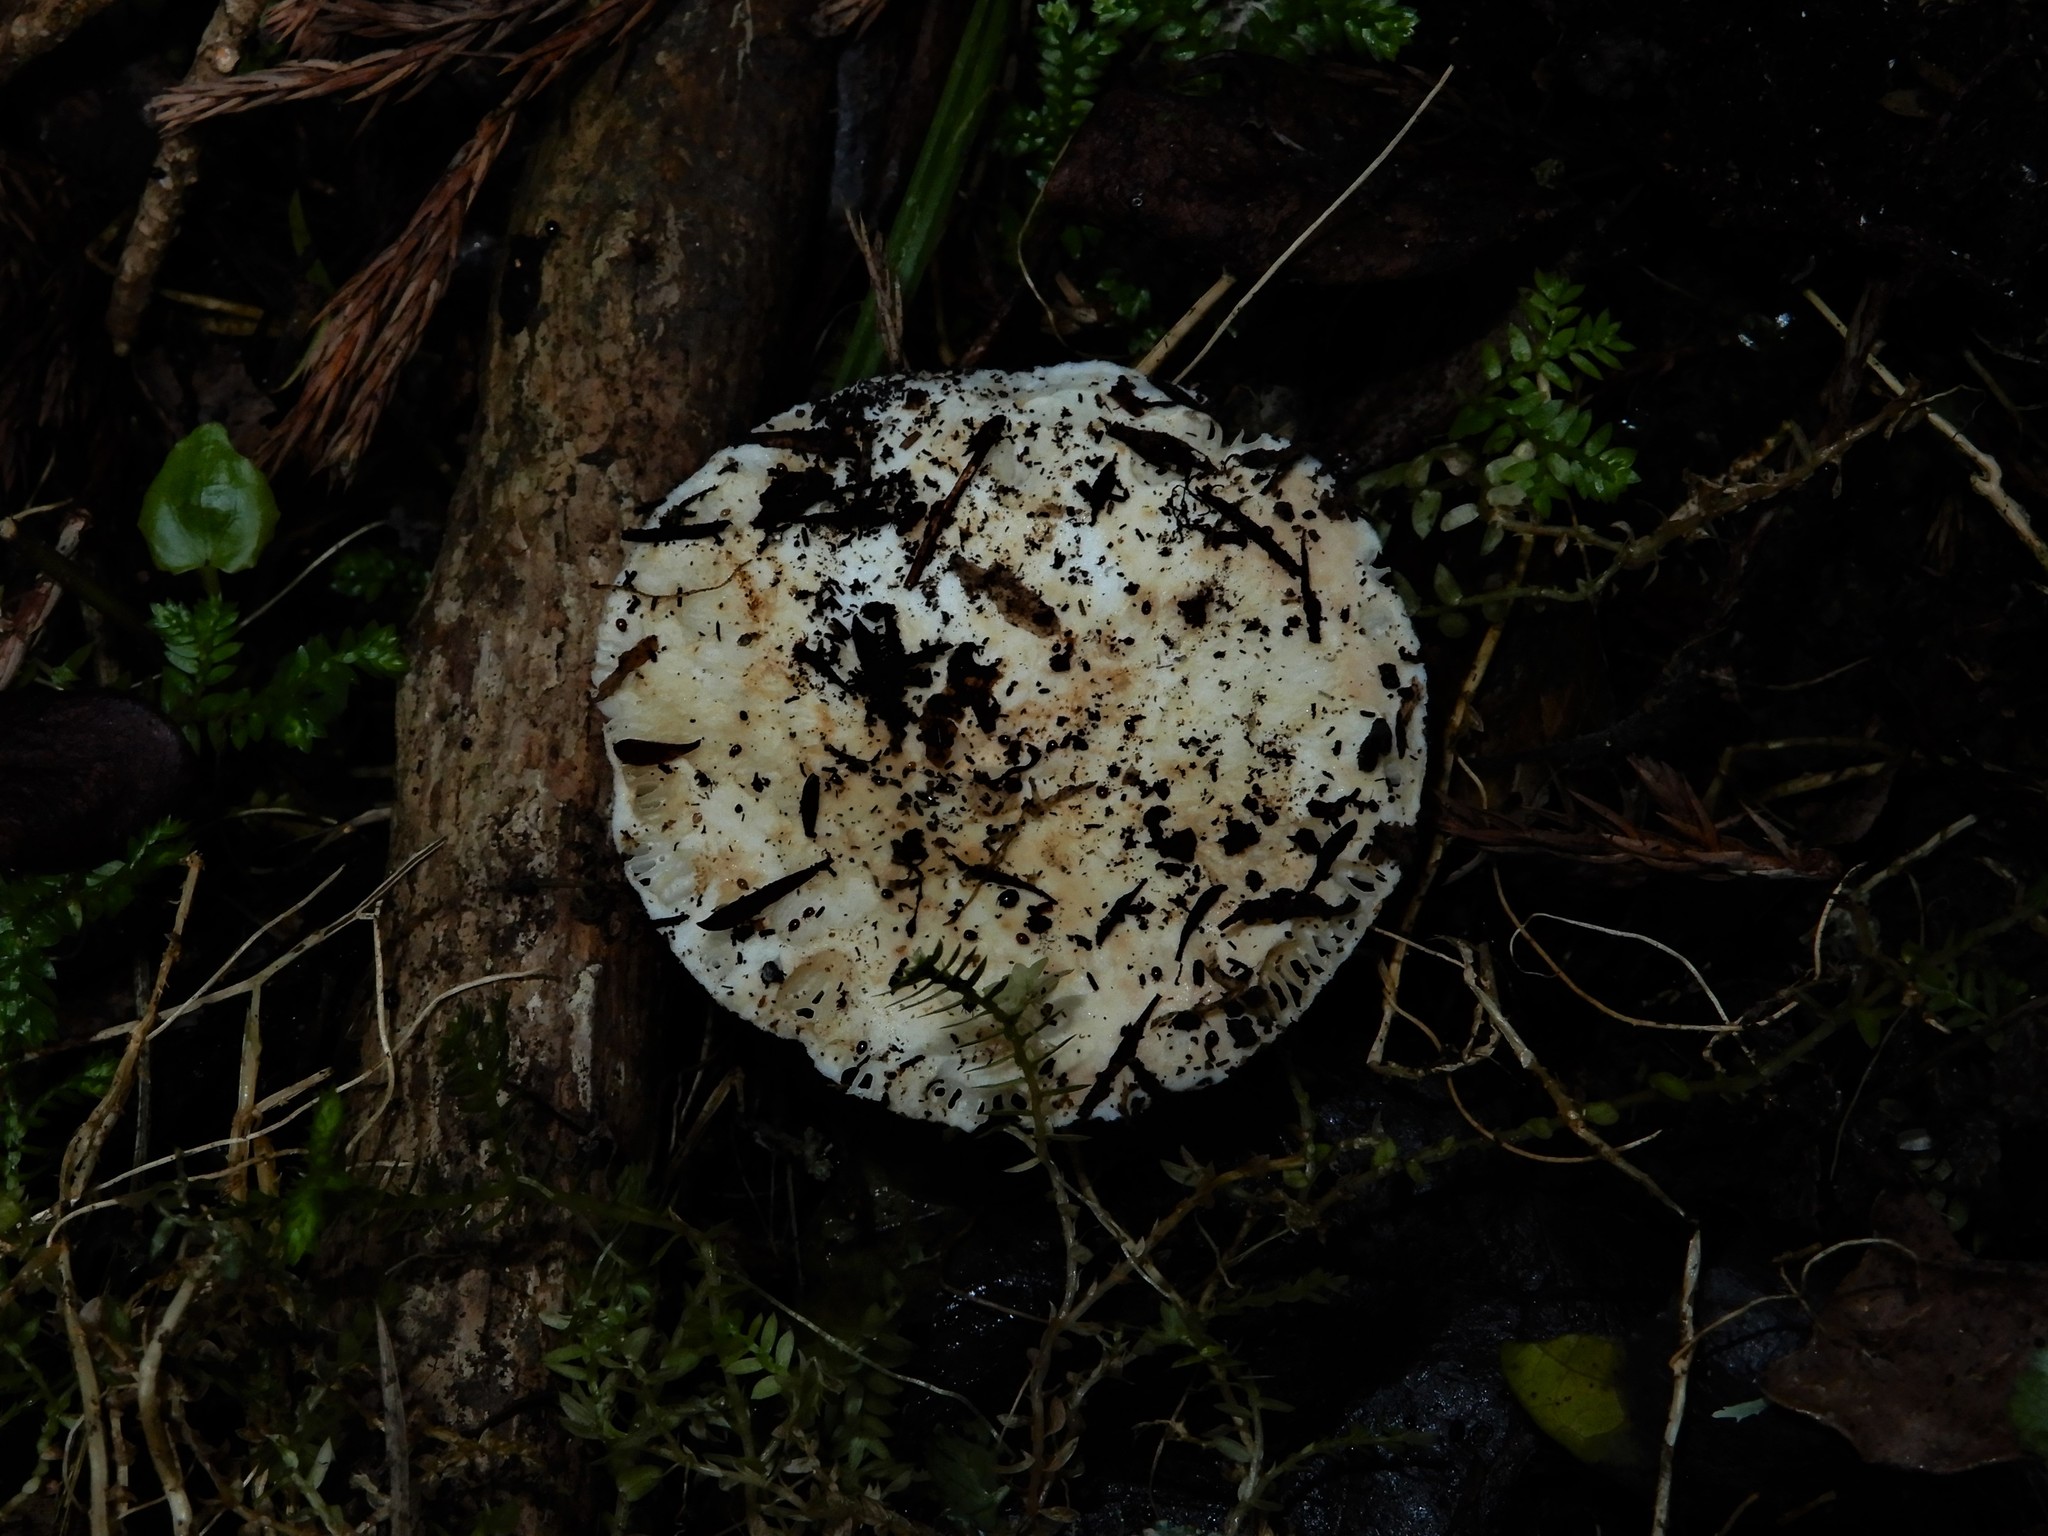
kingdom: Fungi
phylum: Basidiomycota
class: Agaricomycetes
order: Russulales
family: Russulaceae
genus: Russula
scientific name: Russula australis
